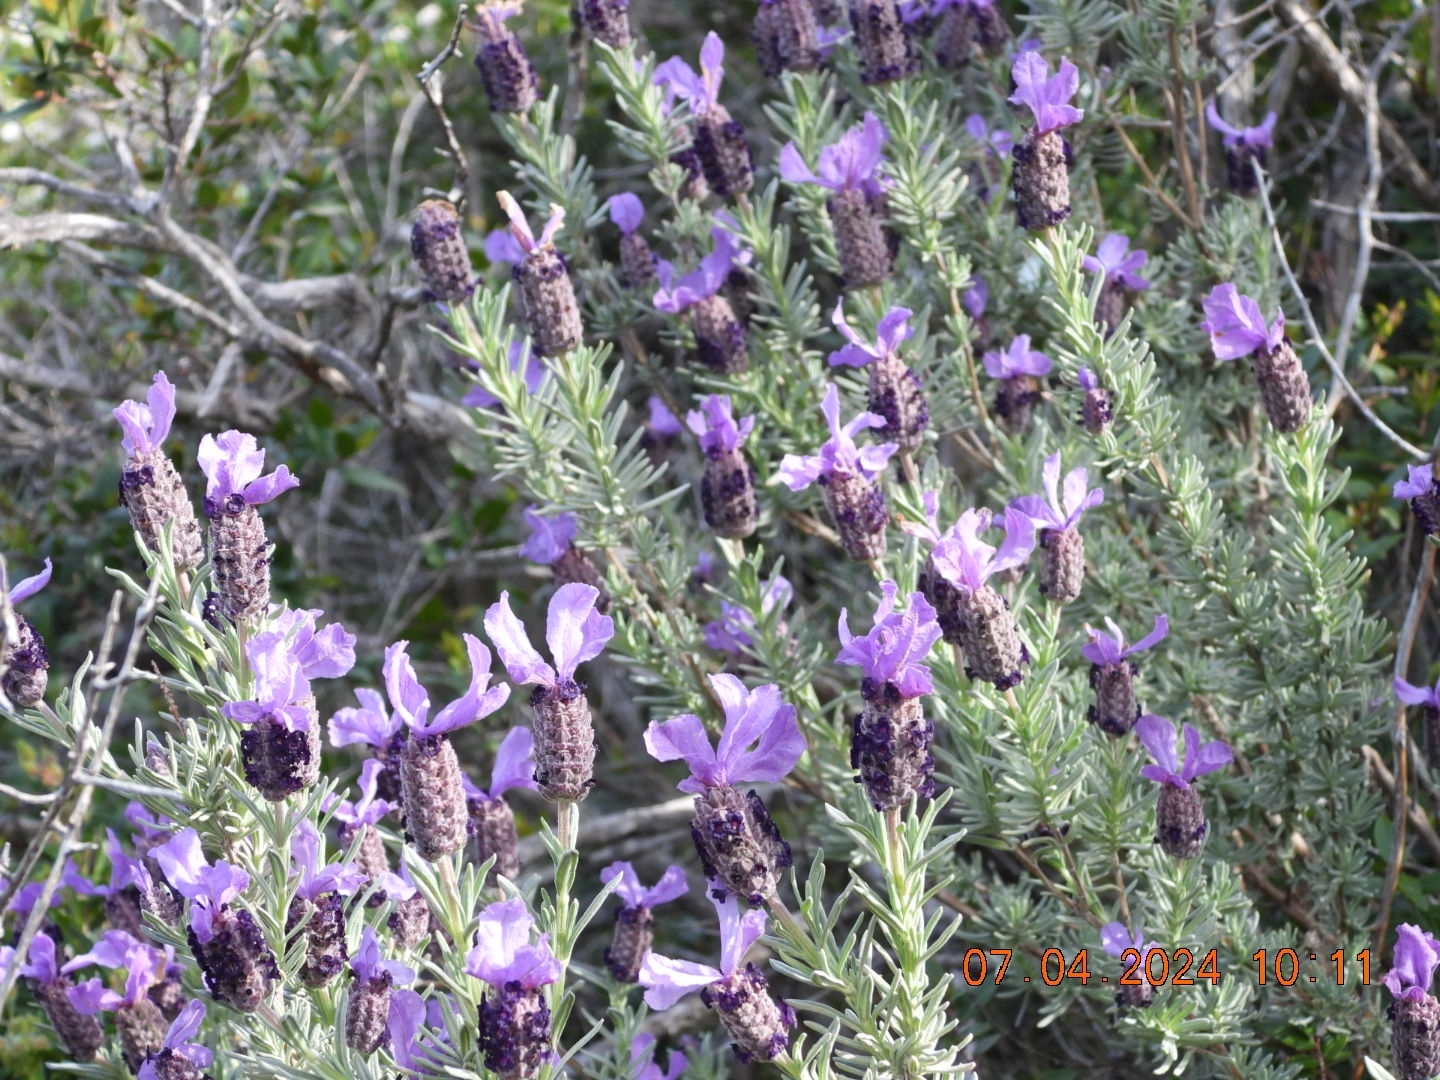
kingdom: Plantae
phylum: Tracheophyta
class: Magnoliopsida
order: Lamiales
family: Lamiaceae
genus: Lavandula
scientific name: Lavandula stoechas
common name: French lavender
